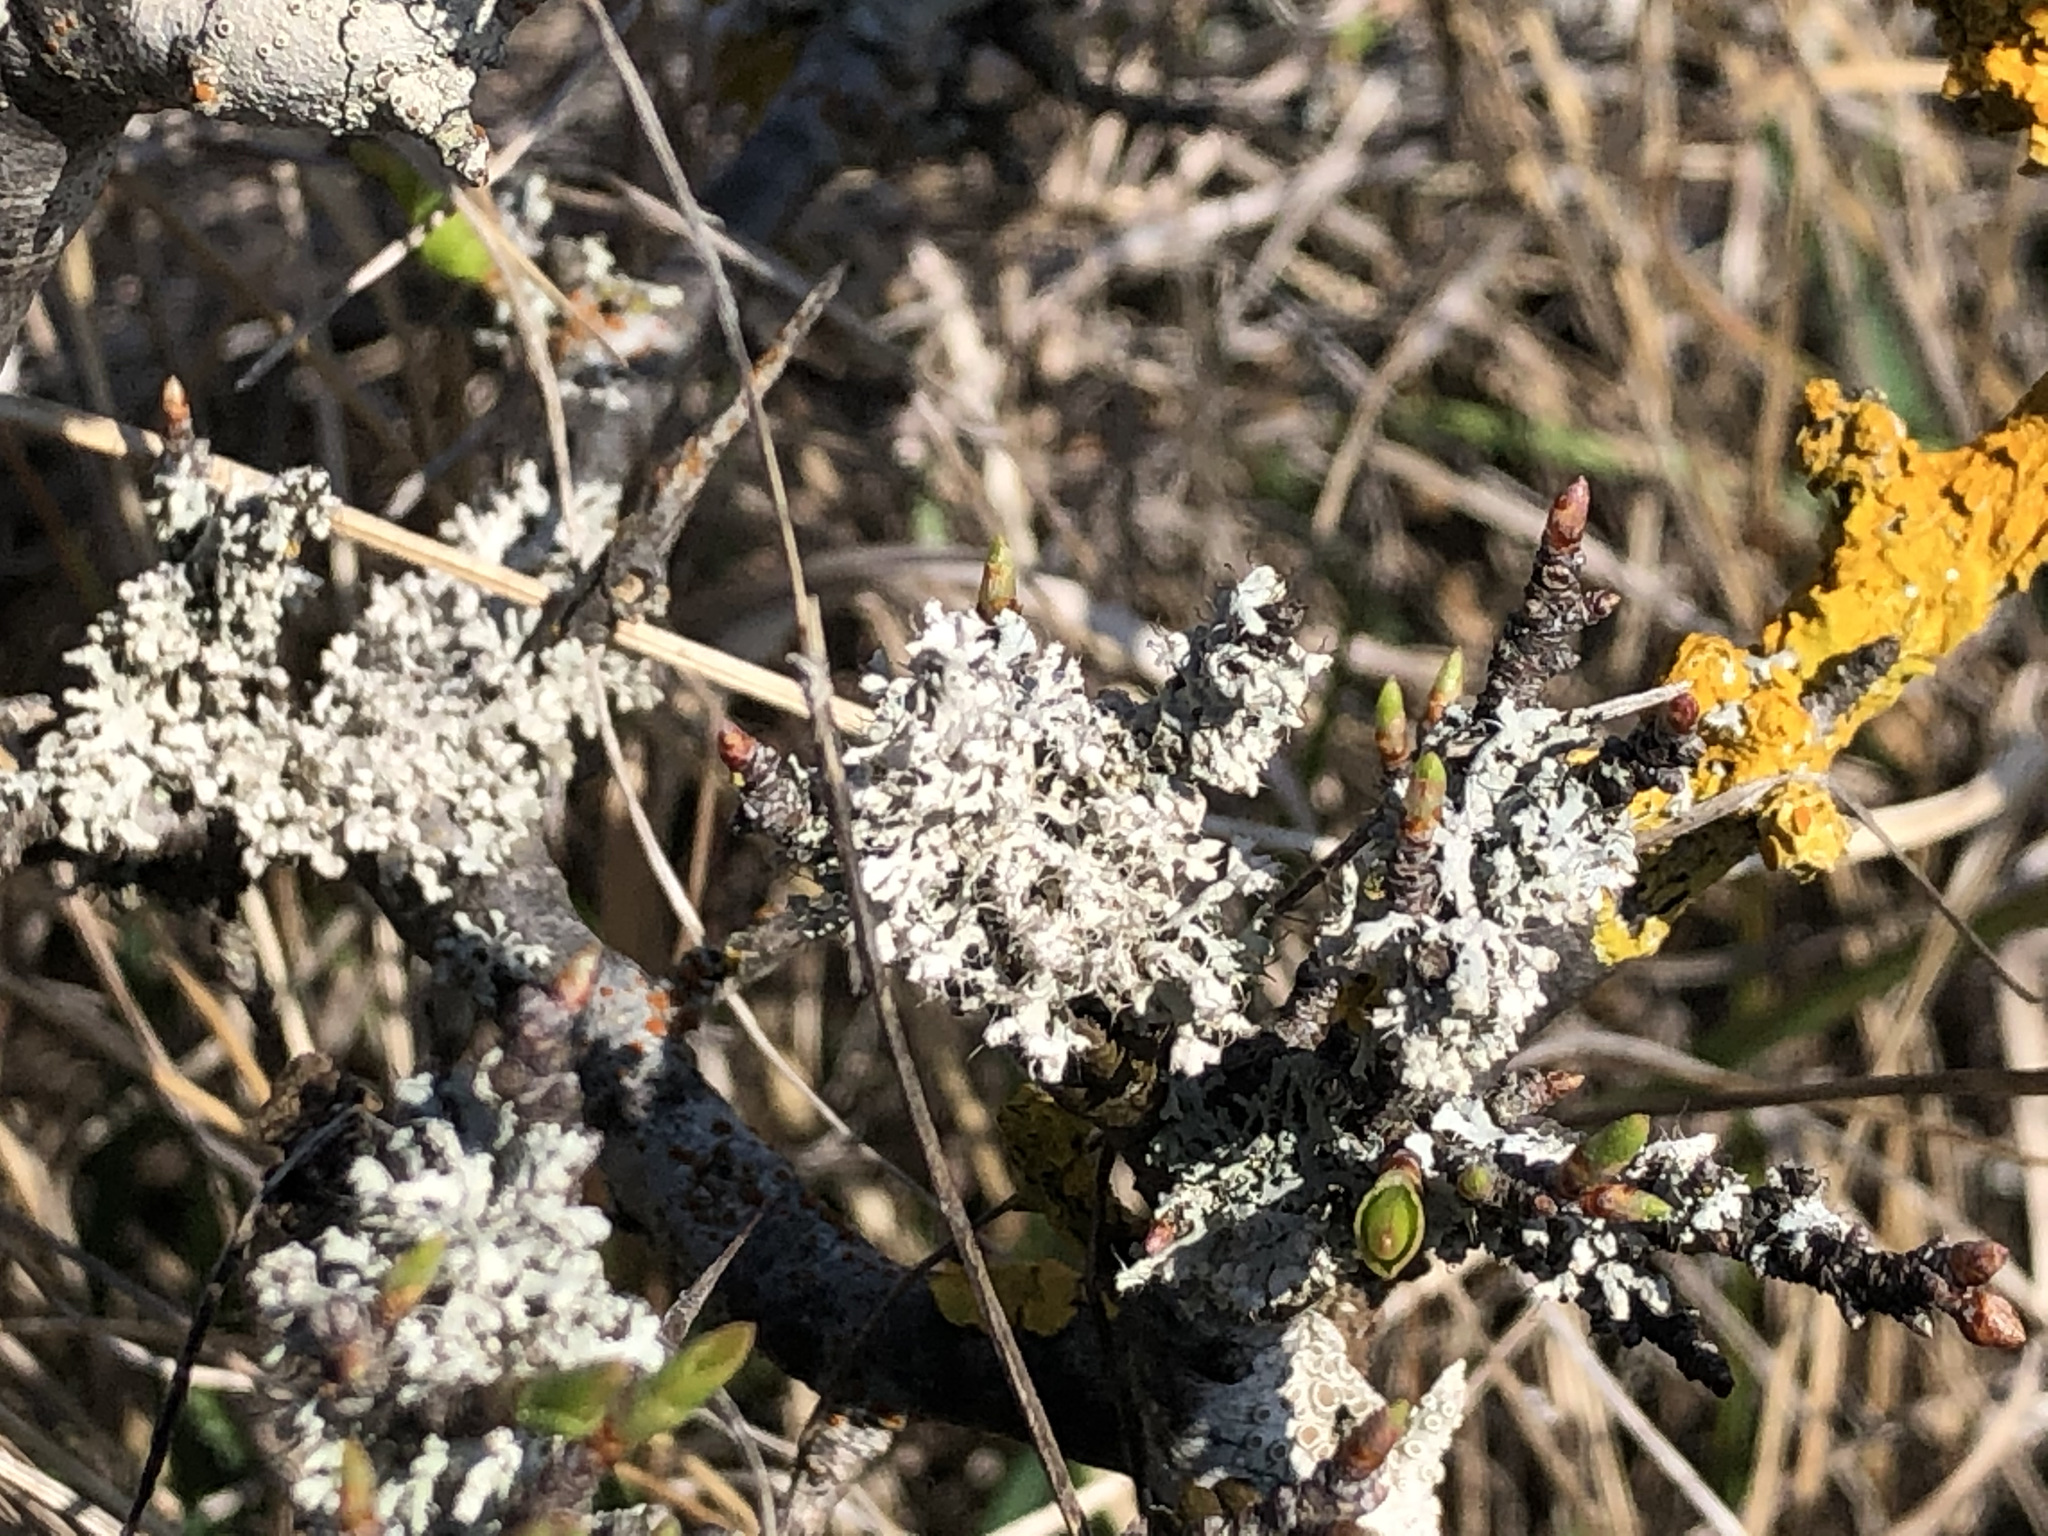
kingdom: Fungi
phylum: Ascomycota
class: Lecanoromycetes
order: Caliciales
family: Physciaceae
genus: Physcia
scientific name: Physcia adscendens
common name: Hooded rosette lichen
